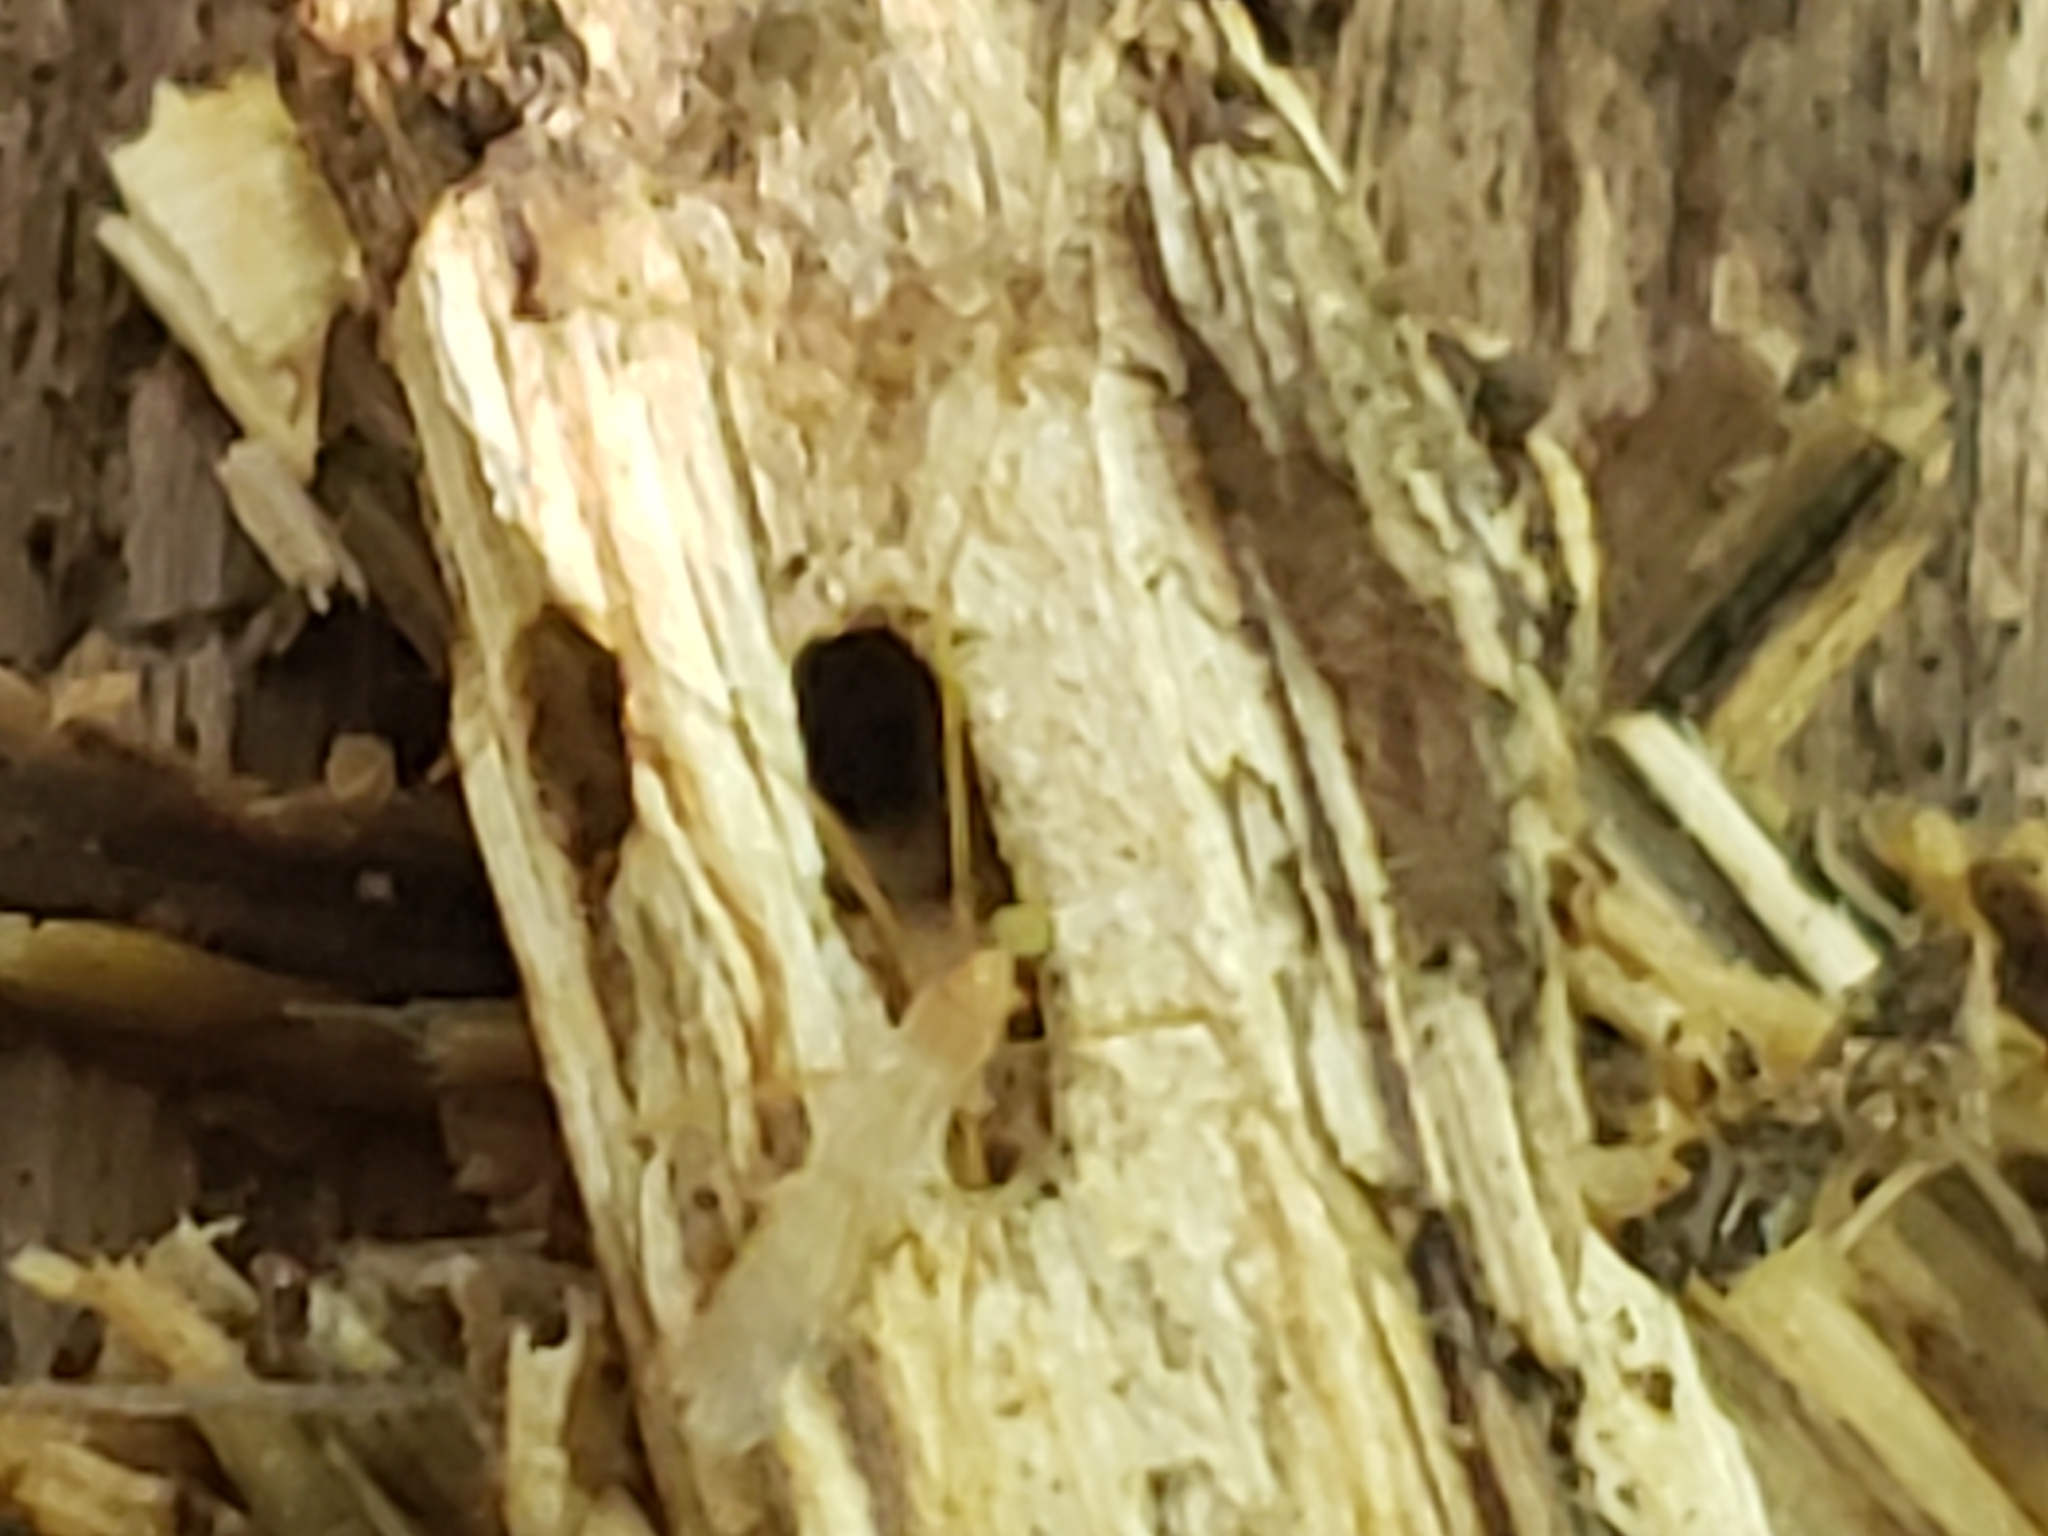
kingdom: Animalia
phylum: Arthropoda
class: Insecta
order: Diptera
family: Limoniidae
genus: Atarba
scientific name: Atarba picticornis
